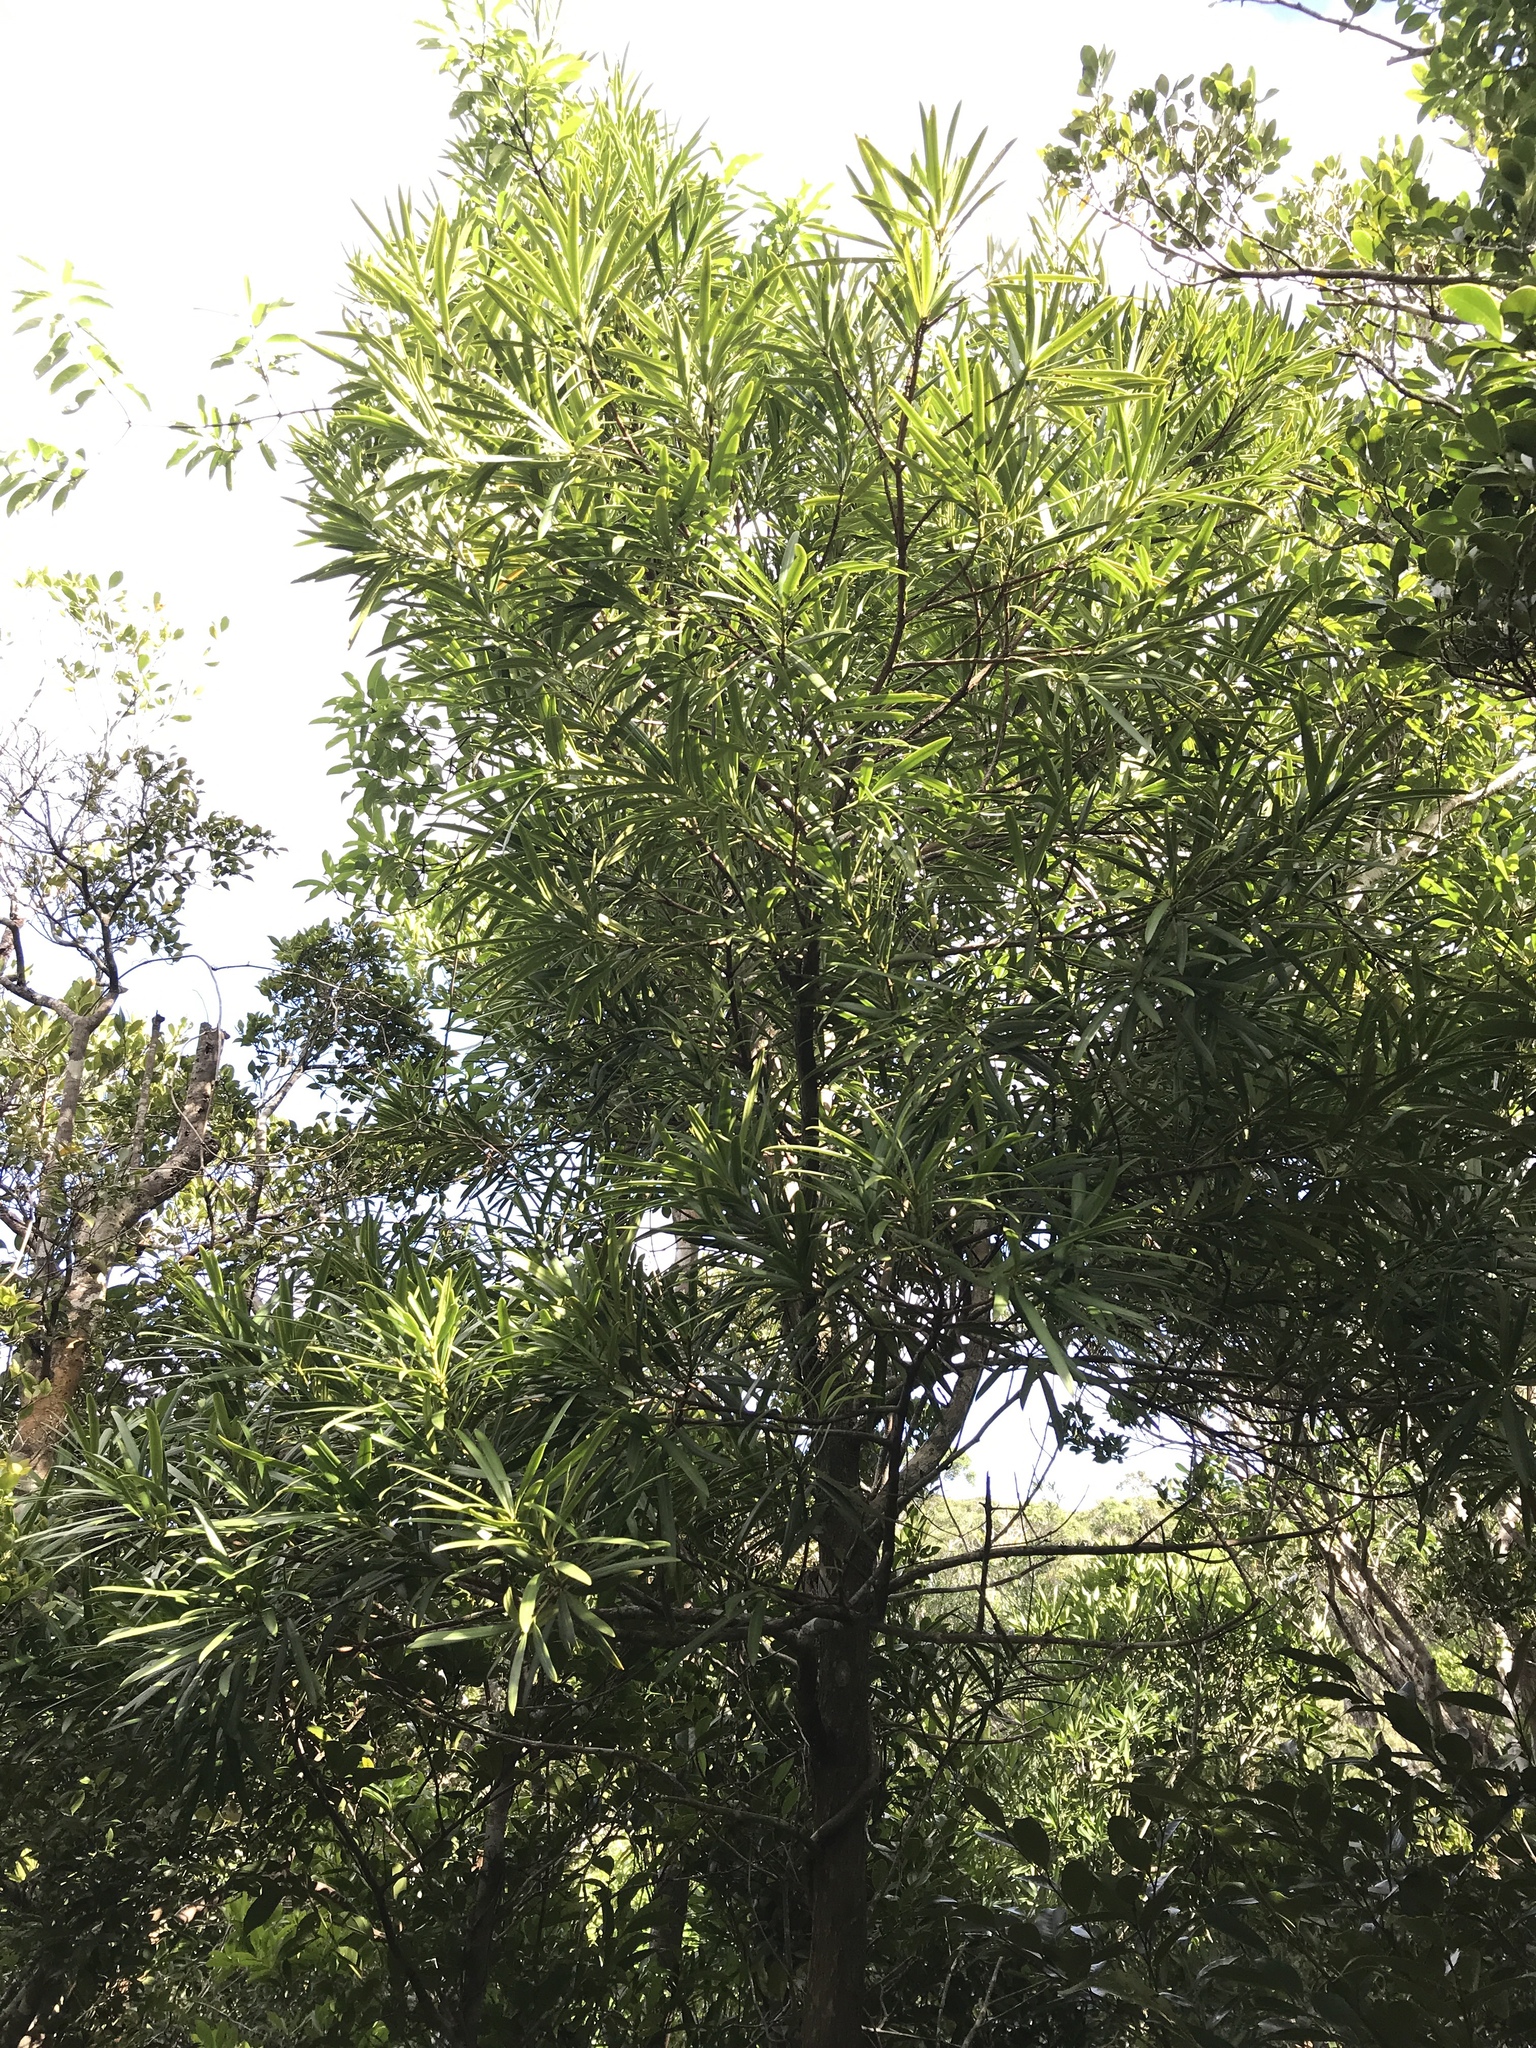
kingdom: Plantae
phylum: Tracheophyta
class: Pinopsida
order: Pinales
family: Podocarpaceae
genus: Podocarpus
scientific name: Podocarpus macrophyllus
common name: Japanese yew
